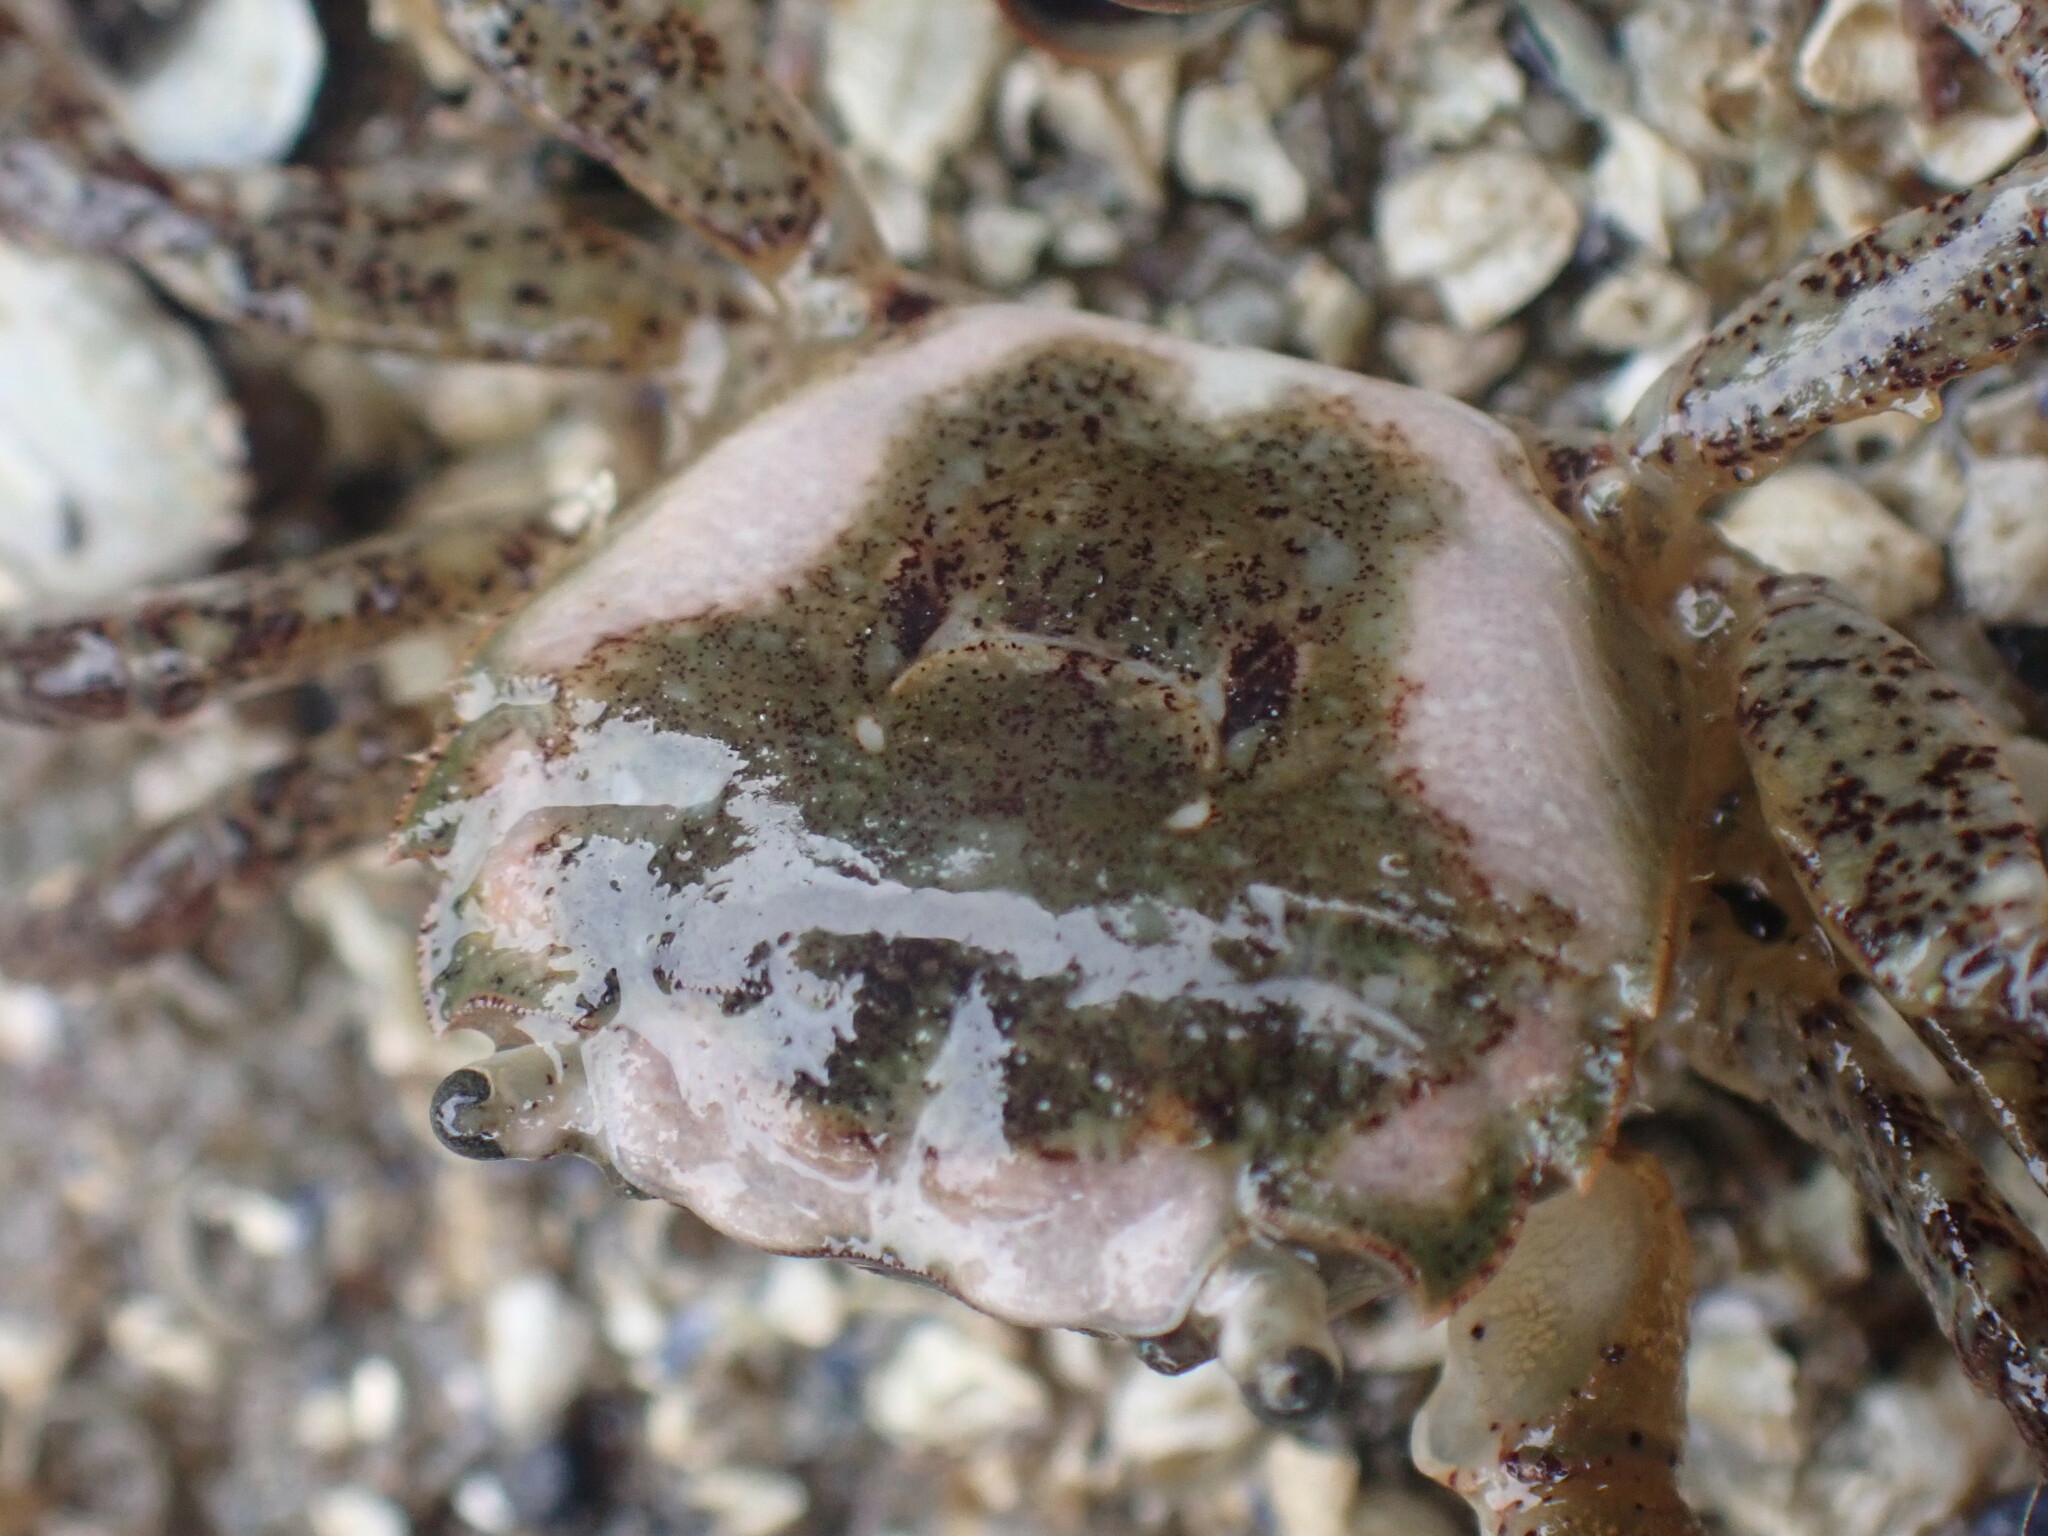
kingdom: Animalia
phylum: Arthropoda
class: Malacostraca
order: Decapoda
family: Varunidae
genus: Hemigrapsus
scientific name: Hemigrapsus oregonensis
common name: Yellow shore crab
